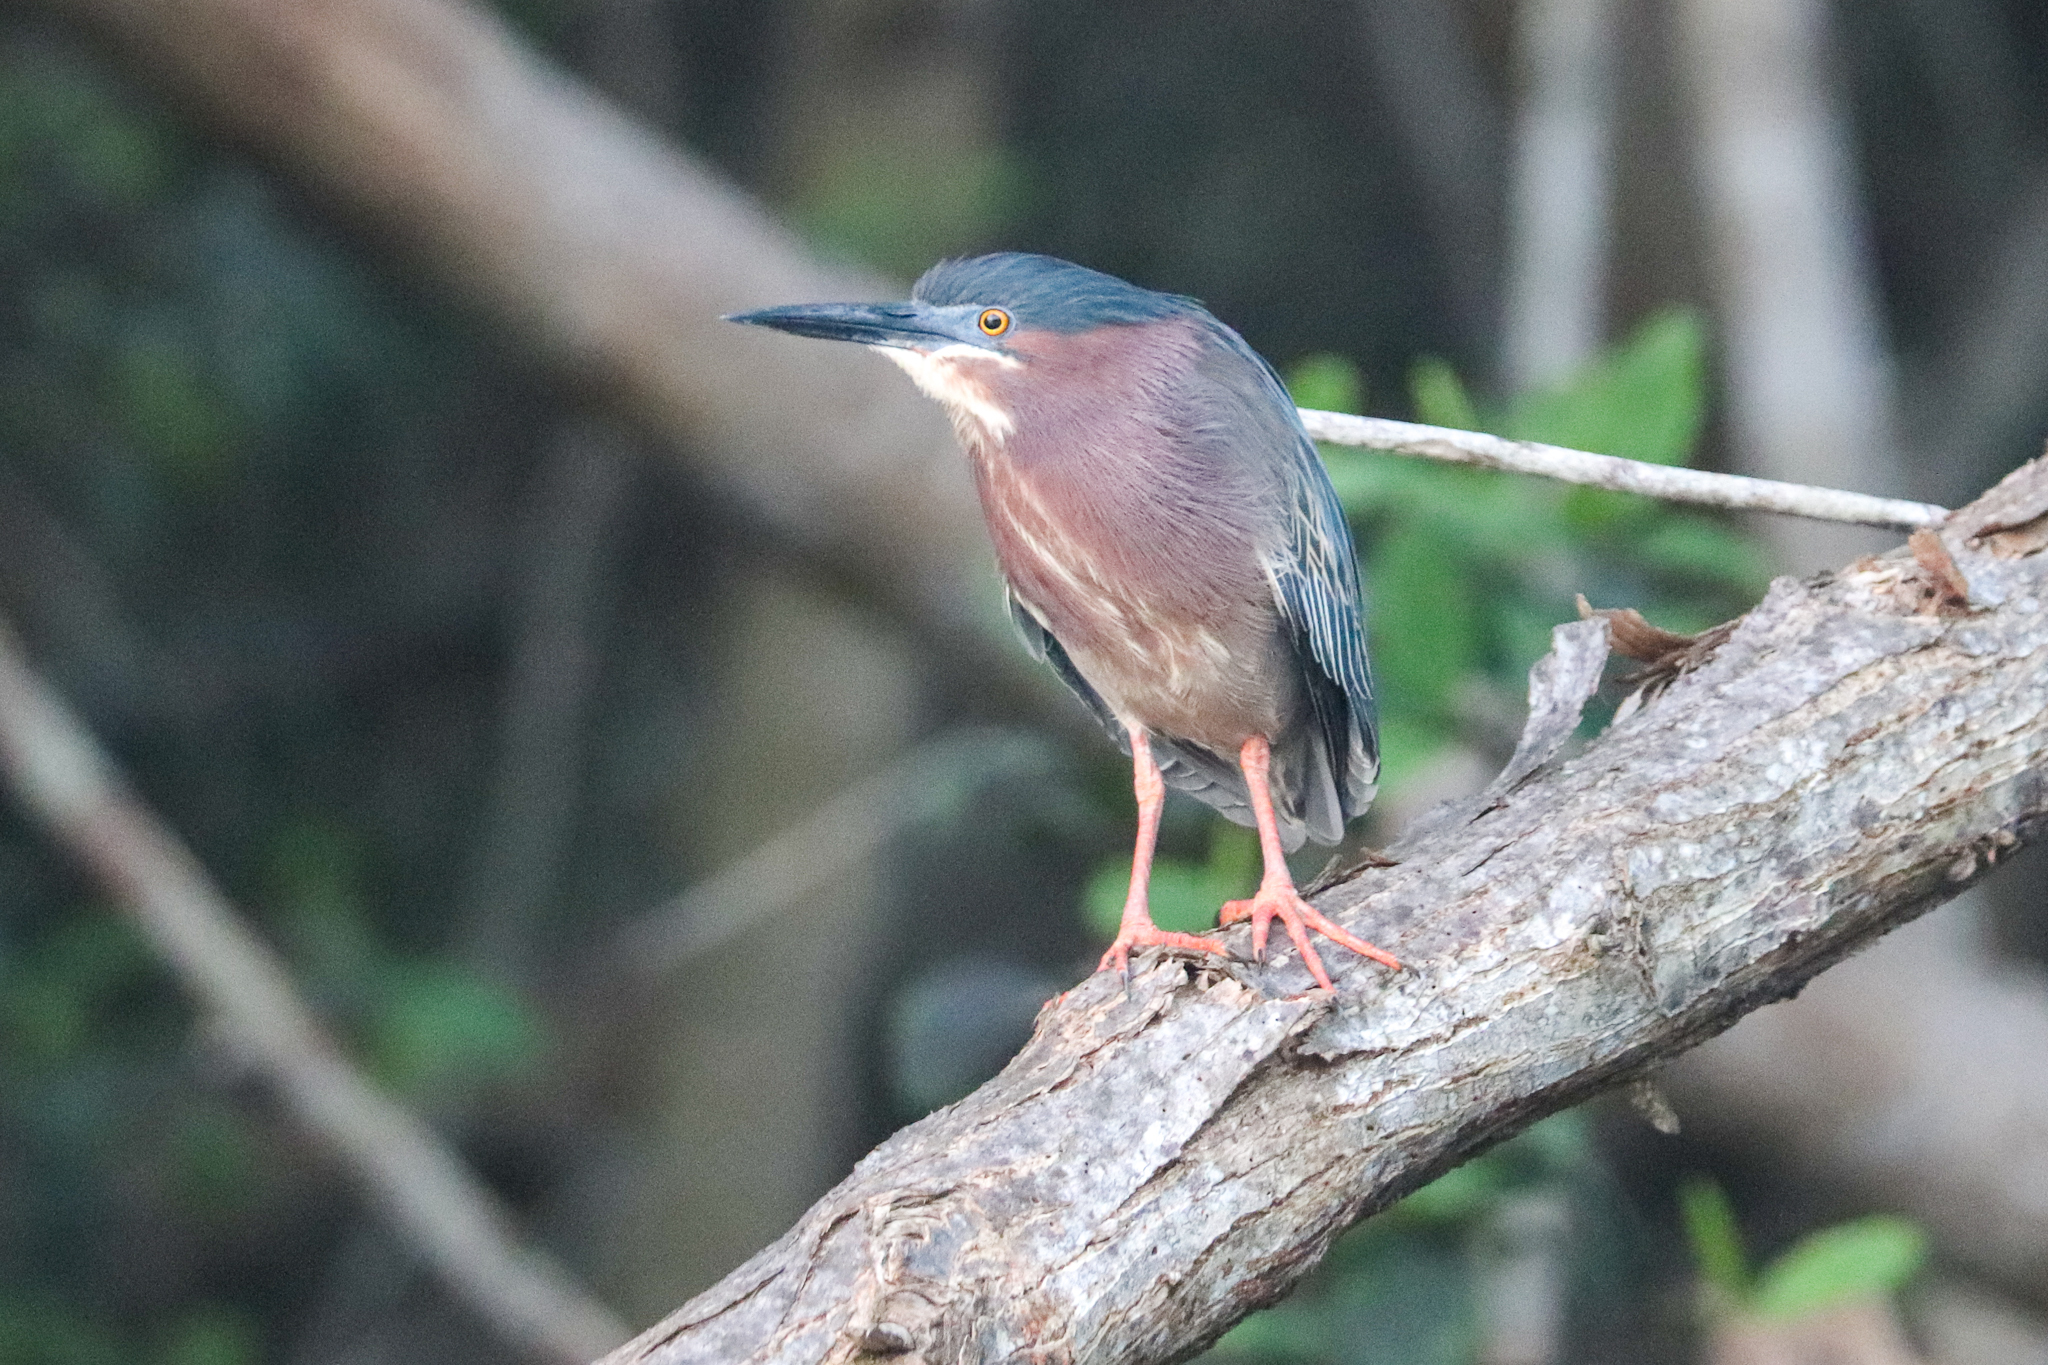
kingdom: Animalia
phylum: Chordata
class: Aves
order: Pelecaniformes
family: Ardeidae
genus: Butorides
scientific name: Butorides virescens
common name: Green heron
